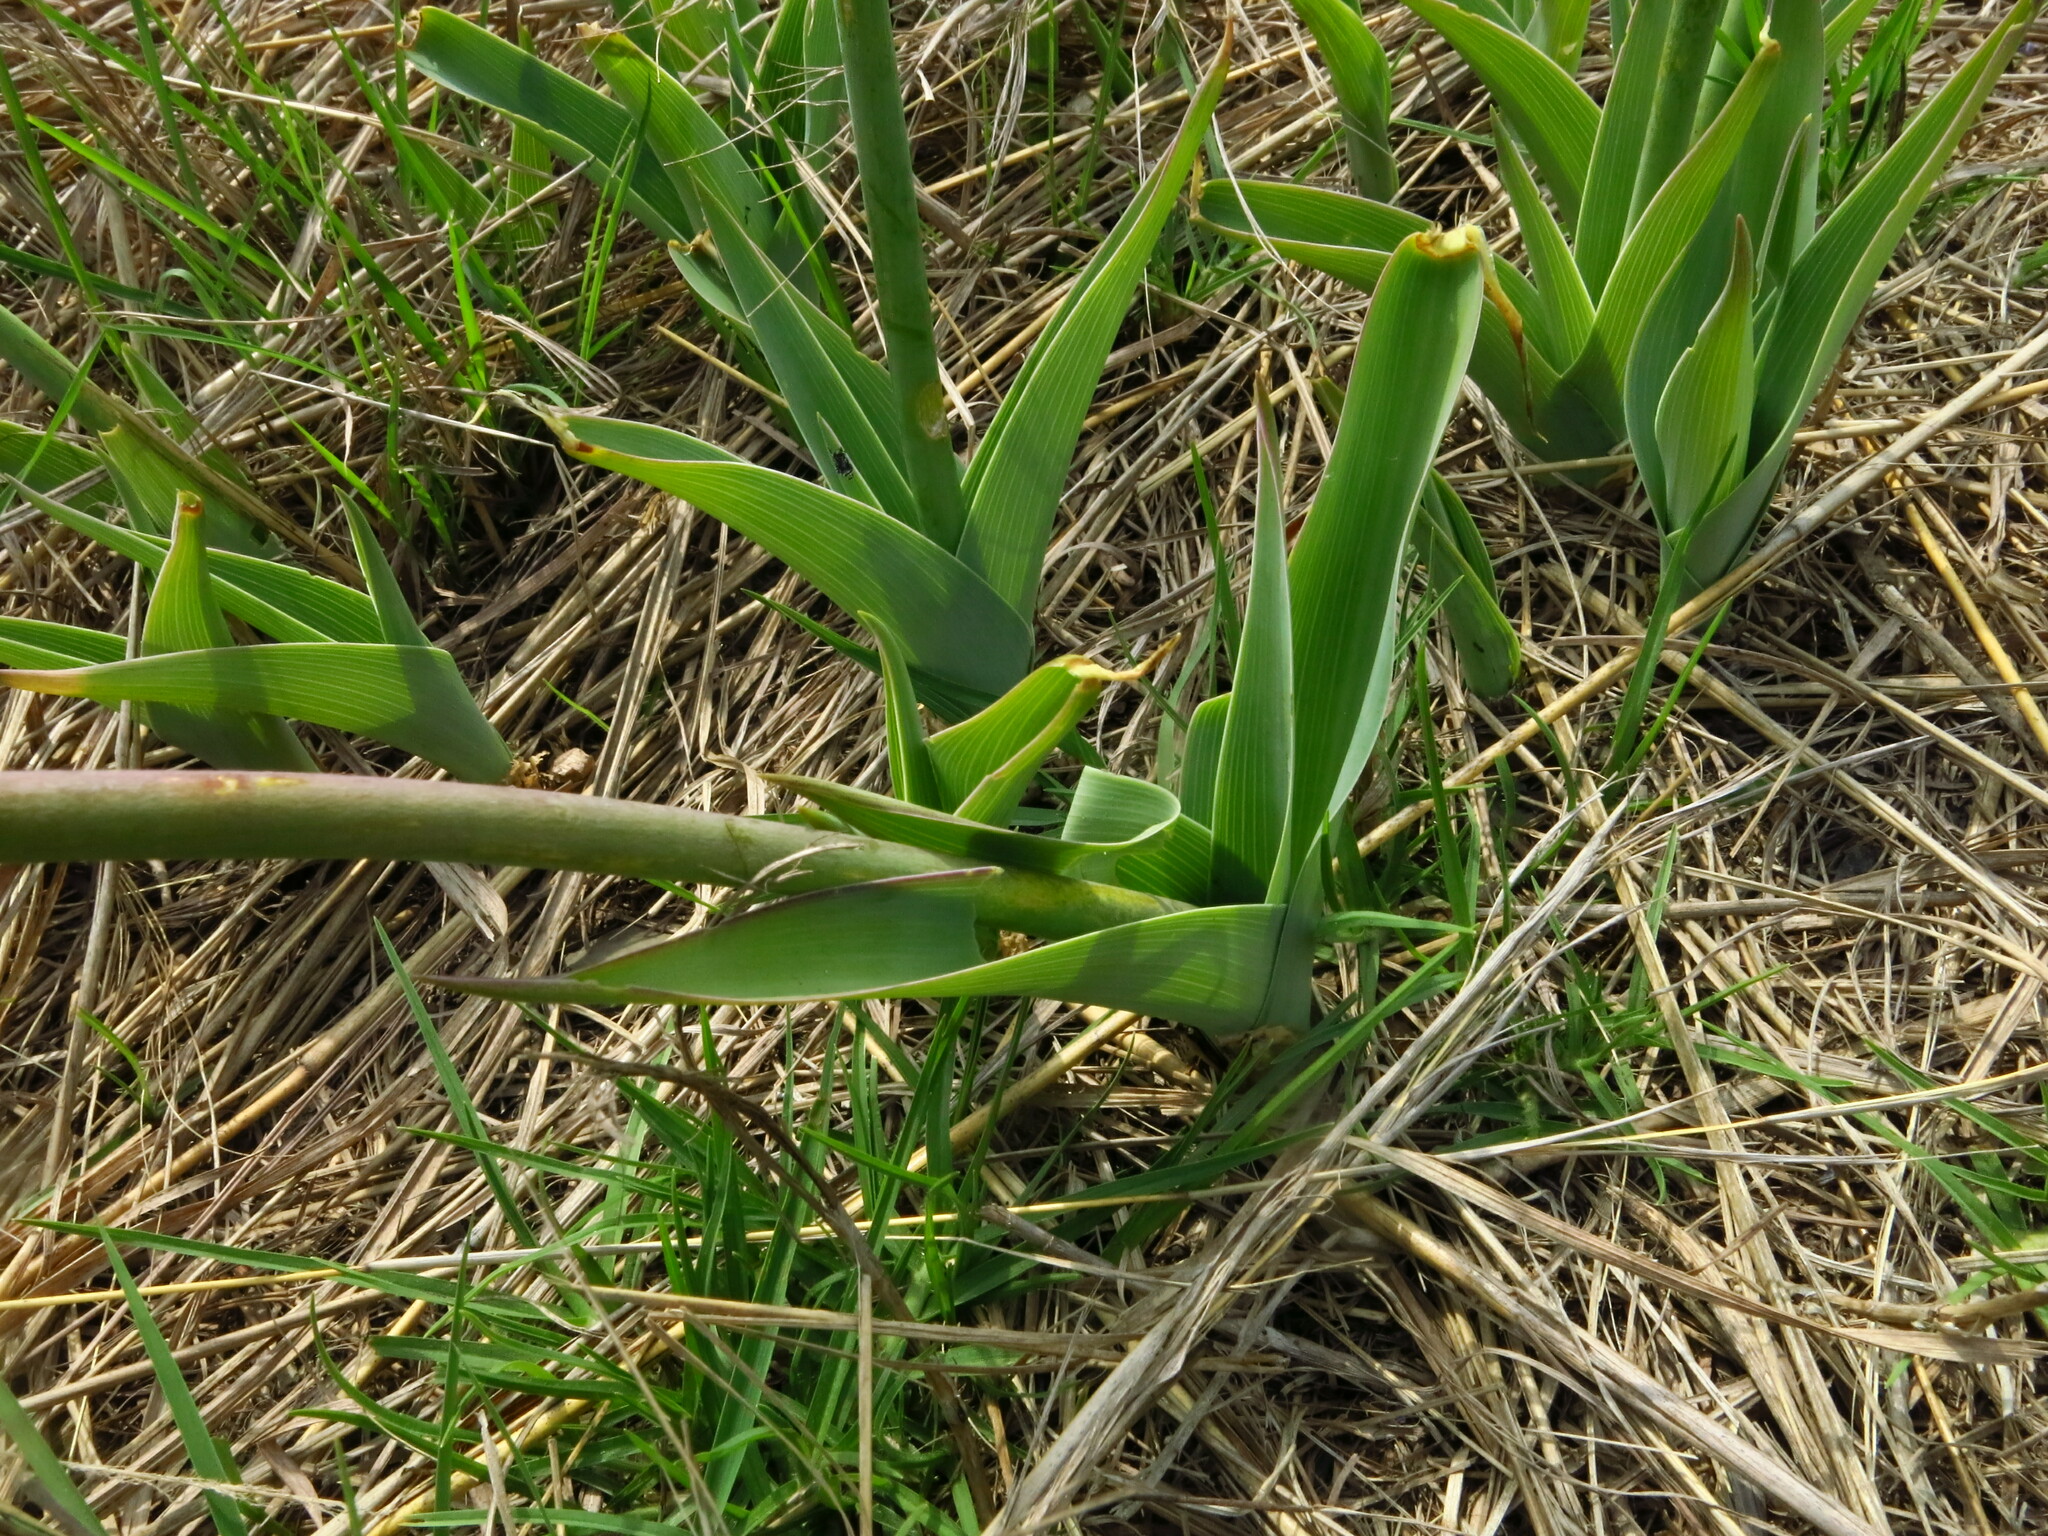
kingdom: Plantae
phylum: Tracheophyta
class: Liliopsida
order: Asparagales
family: Asparagaceae
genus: Merwilla
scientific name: Merwilla plumbea
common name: Blue-squill
